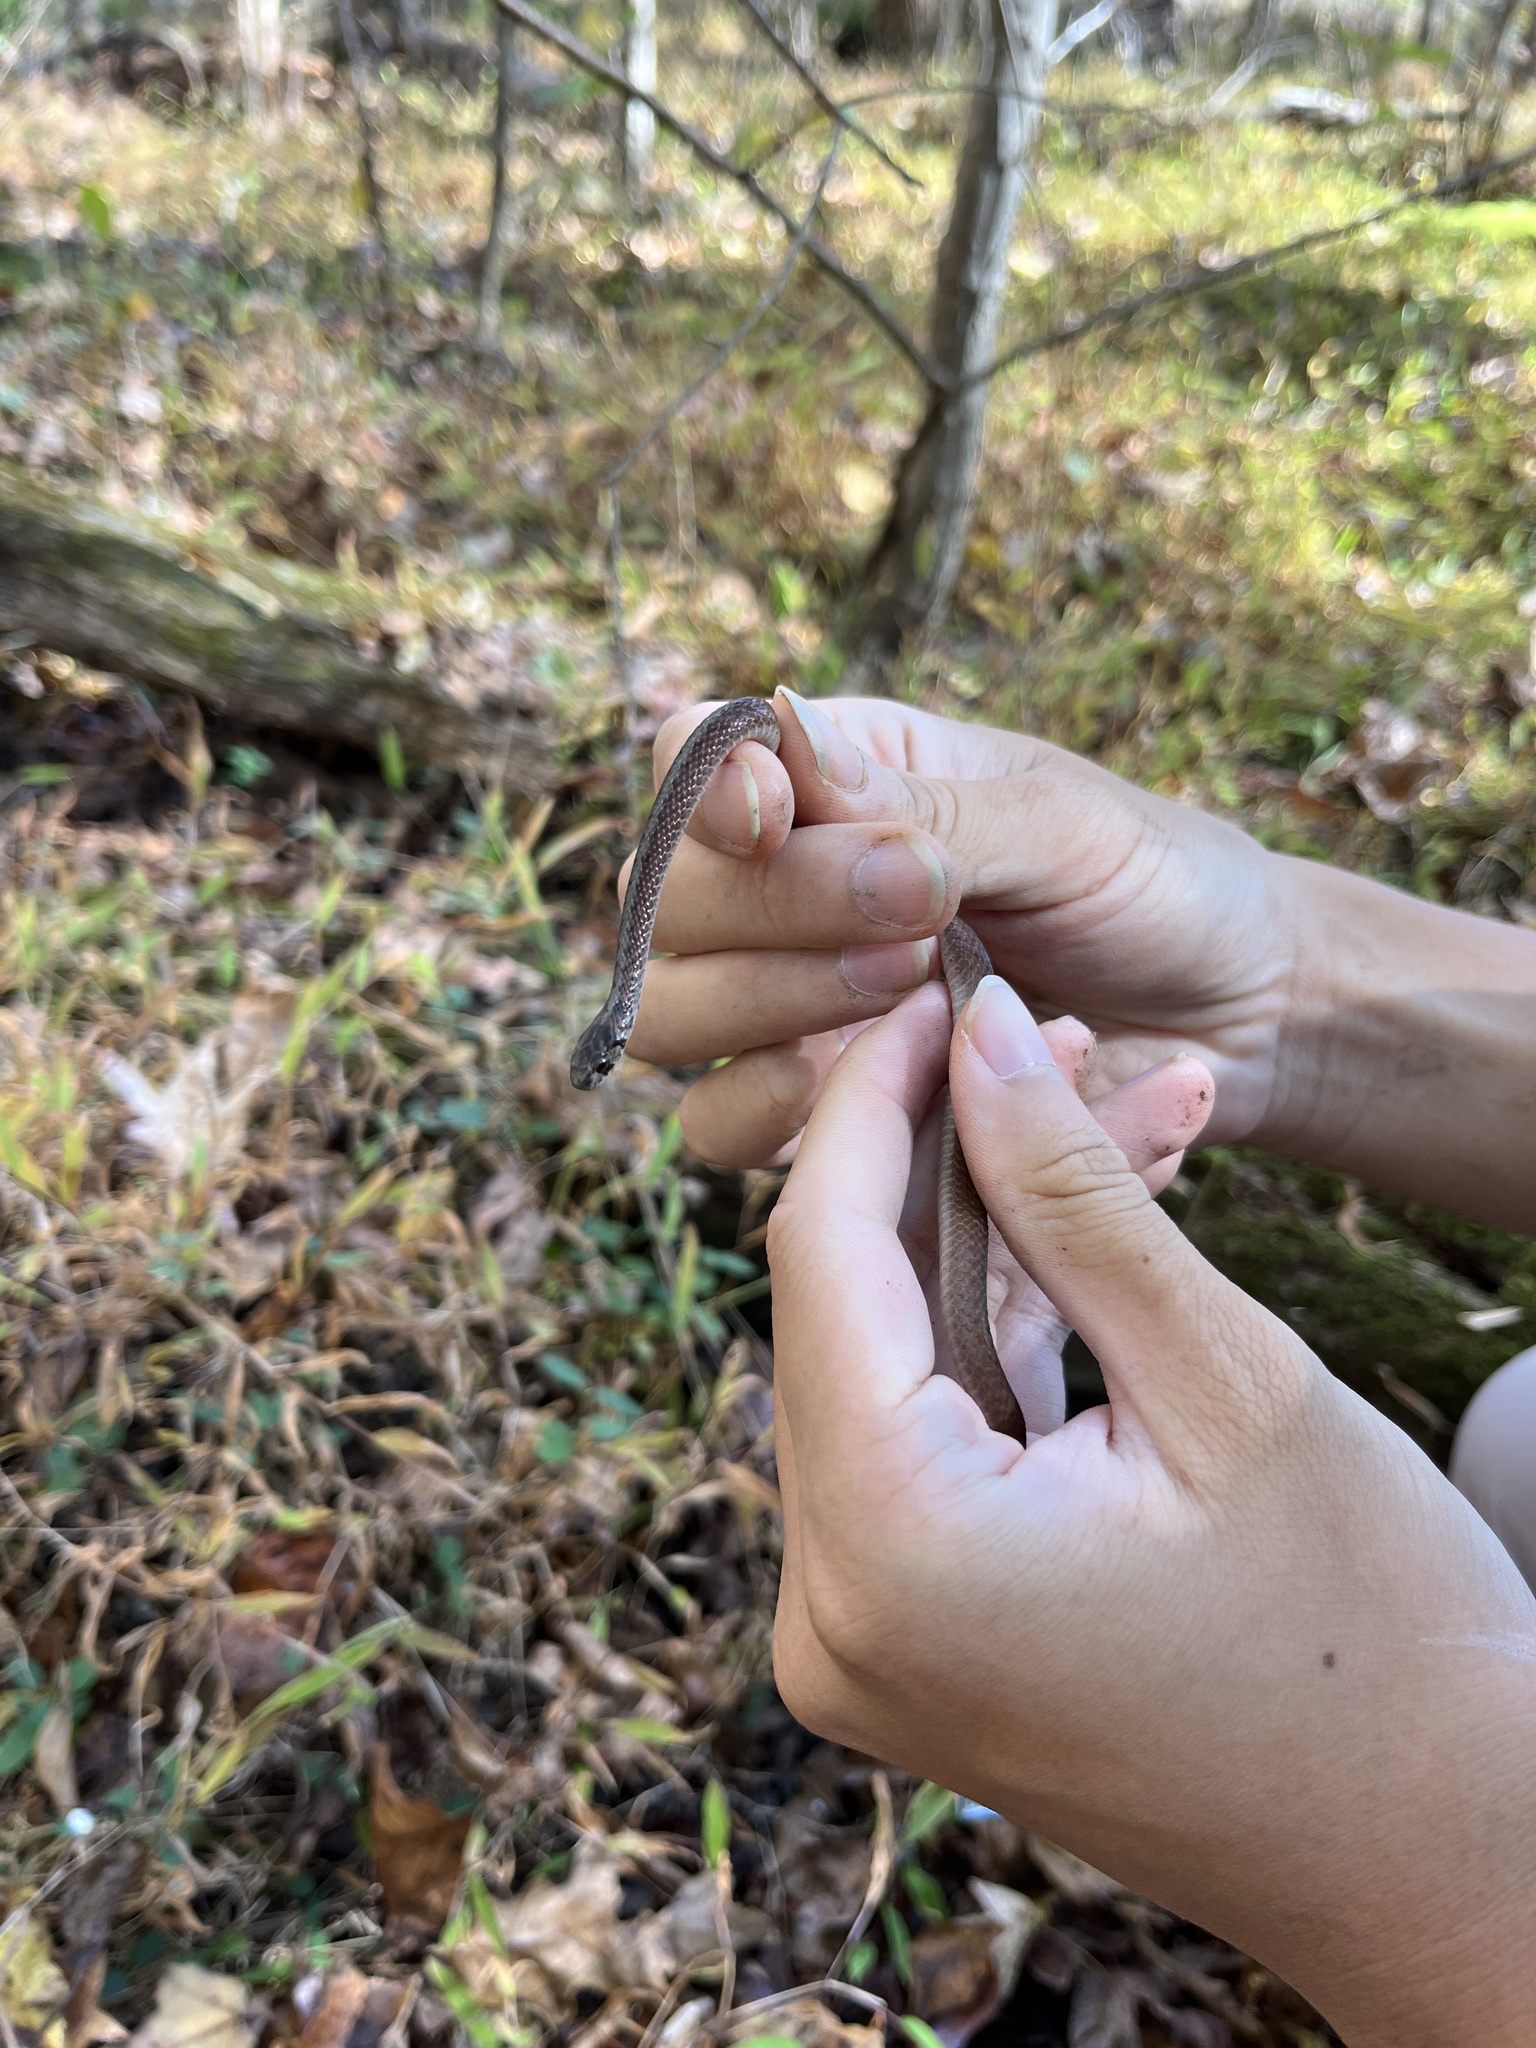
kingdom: Animalia
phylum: Chordata
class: Squamata
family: Colubridae
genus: Storeria
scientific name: Storeria dekayi
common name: (dekay’s) brown snake
